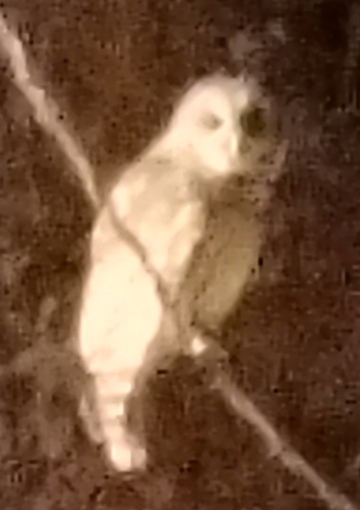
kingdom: Animalia
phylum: Chordata
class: Aves
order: Strigiformes
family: Strigidae
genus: Strix
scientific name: Strix varia
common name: Barred owl
